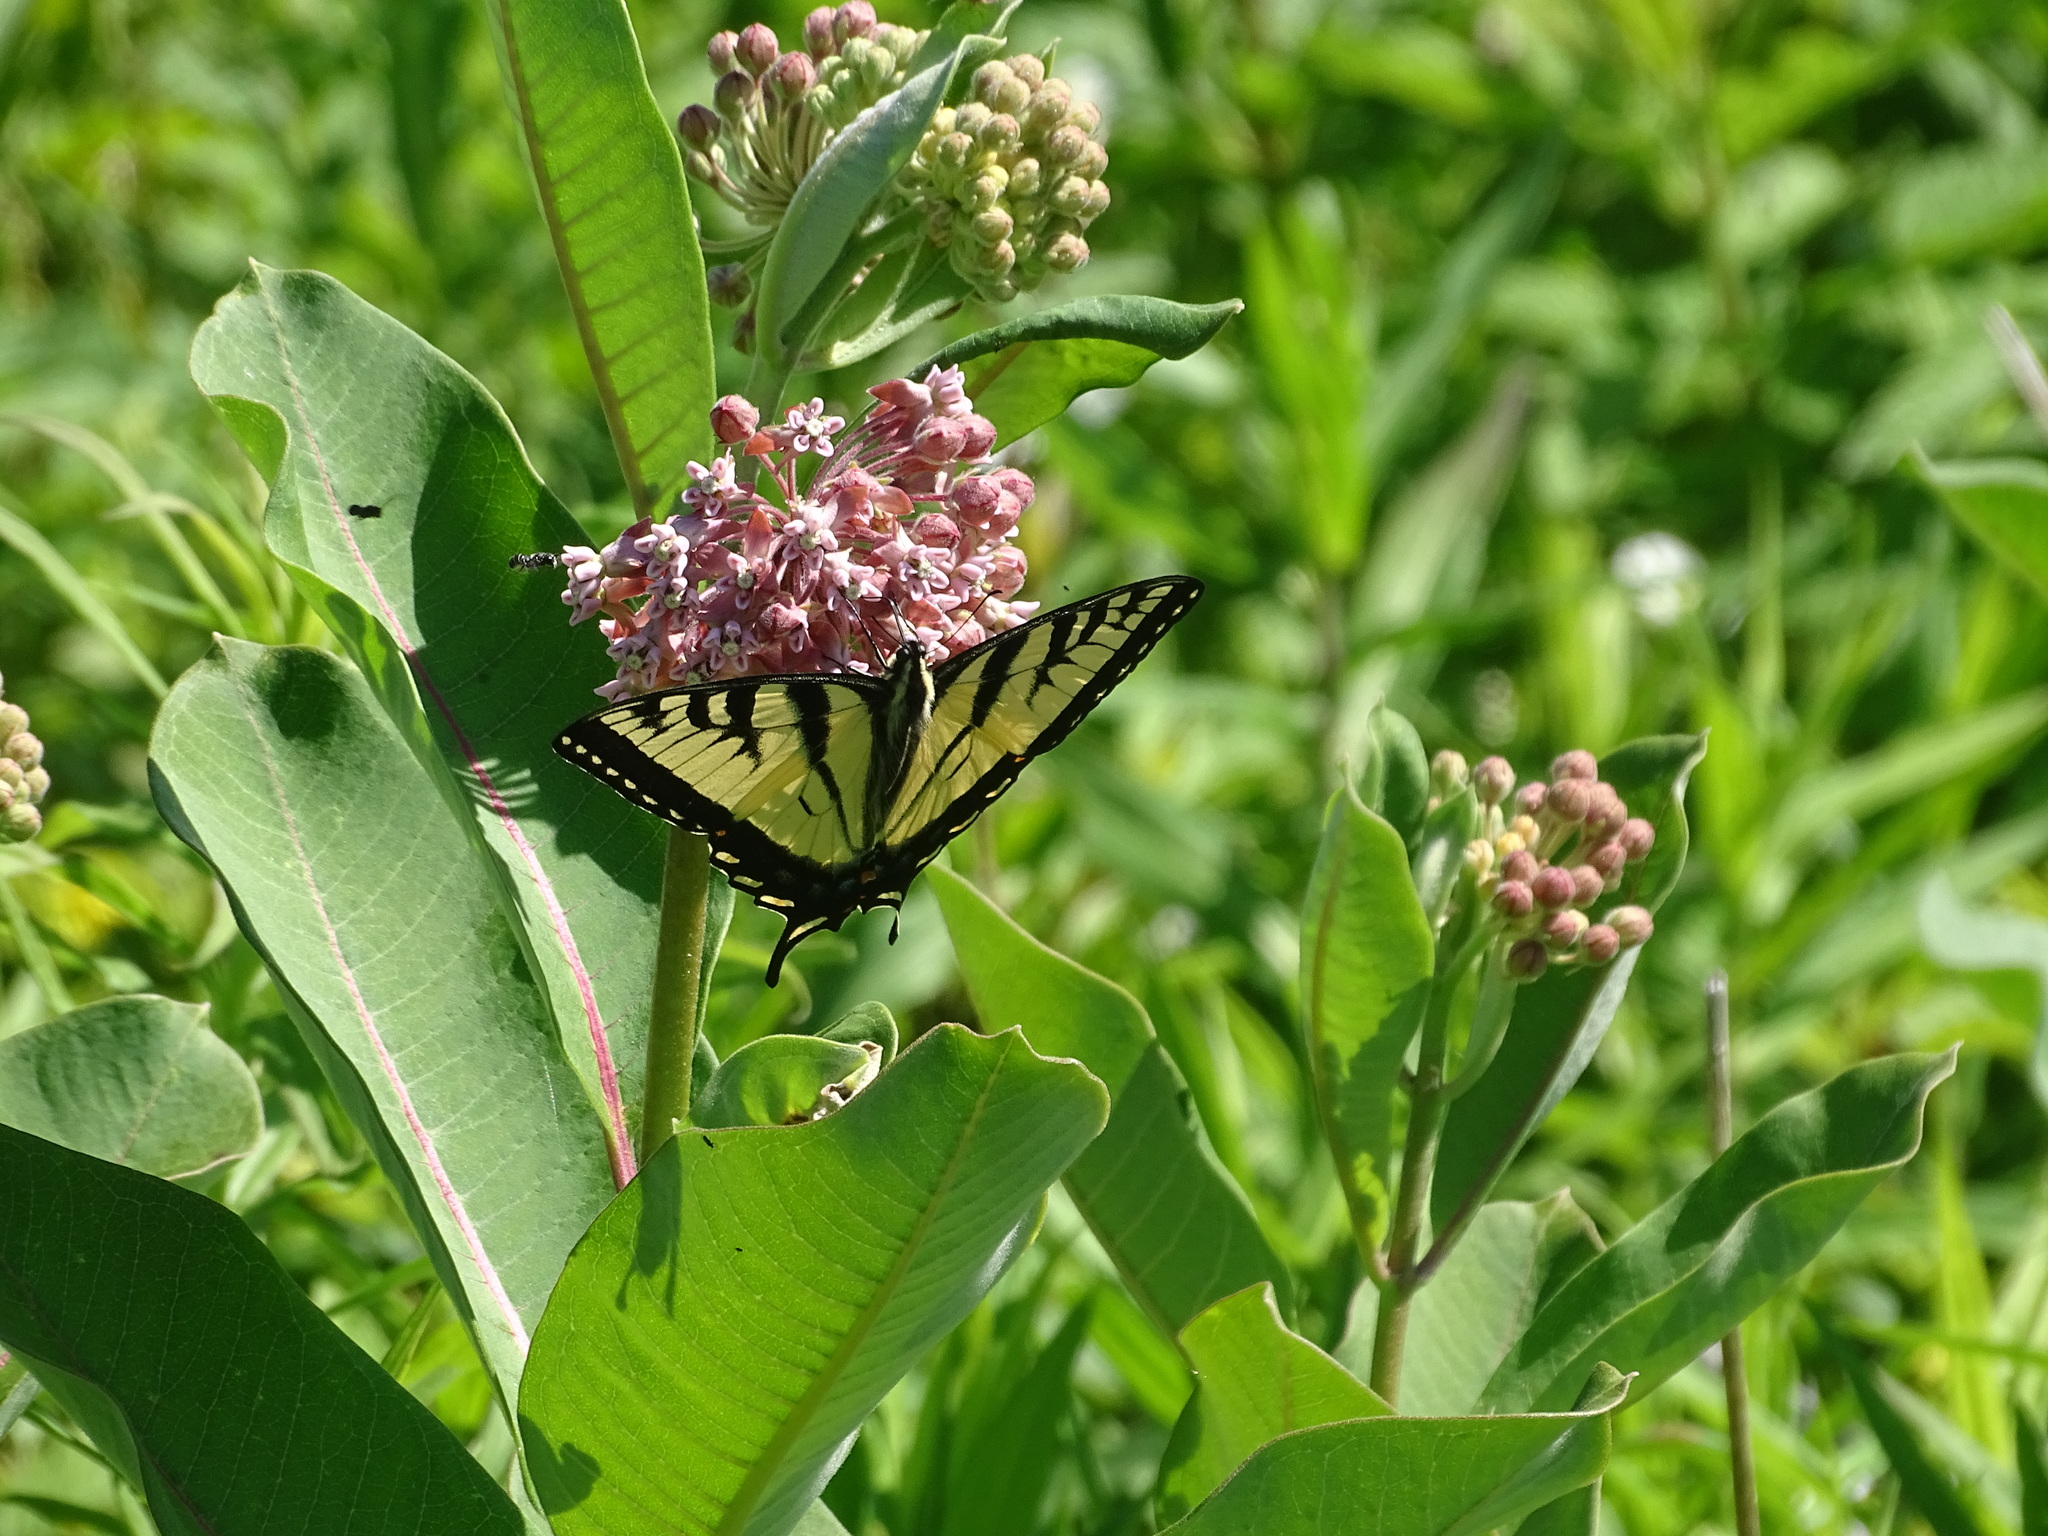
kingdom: Animalia
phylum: Arthropoda
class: Insecta
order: Lepidoptera
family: Papilionidae
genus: Papilio
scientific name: Papilio
